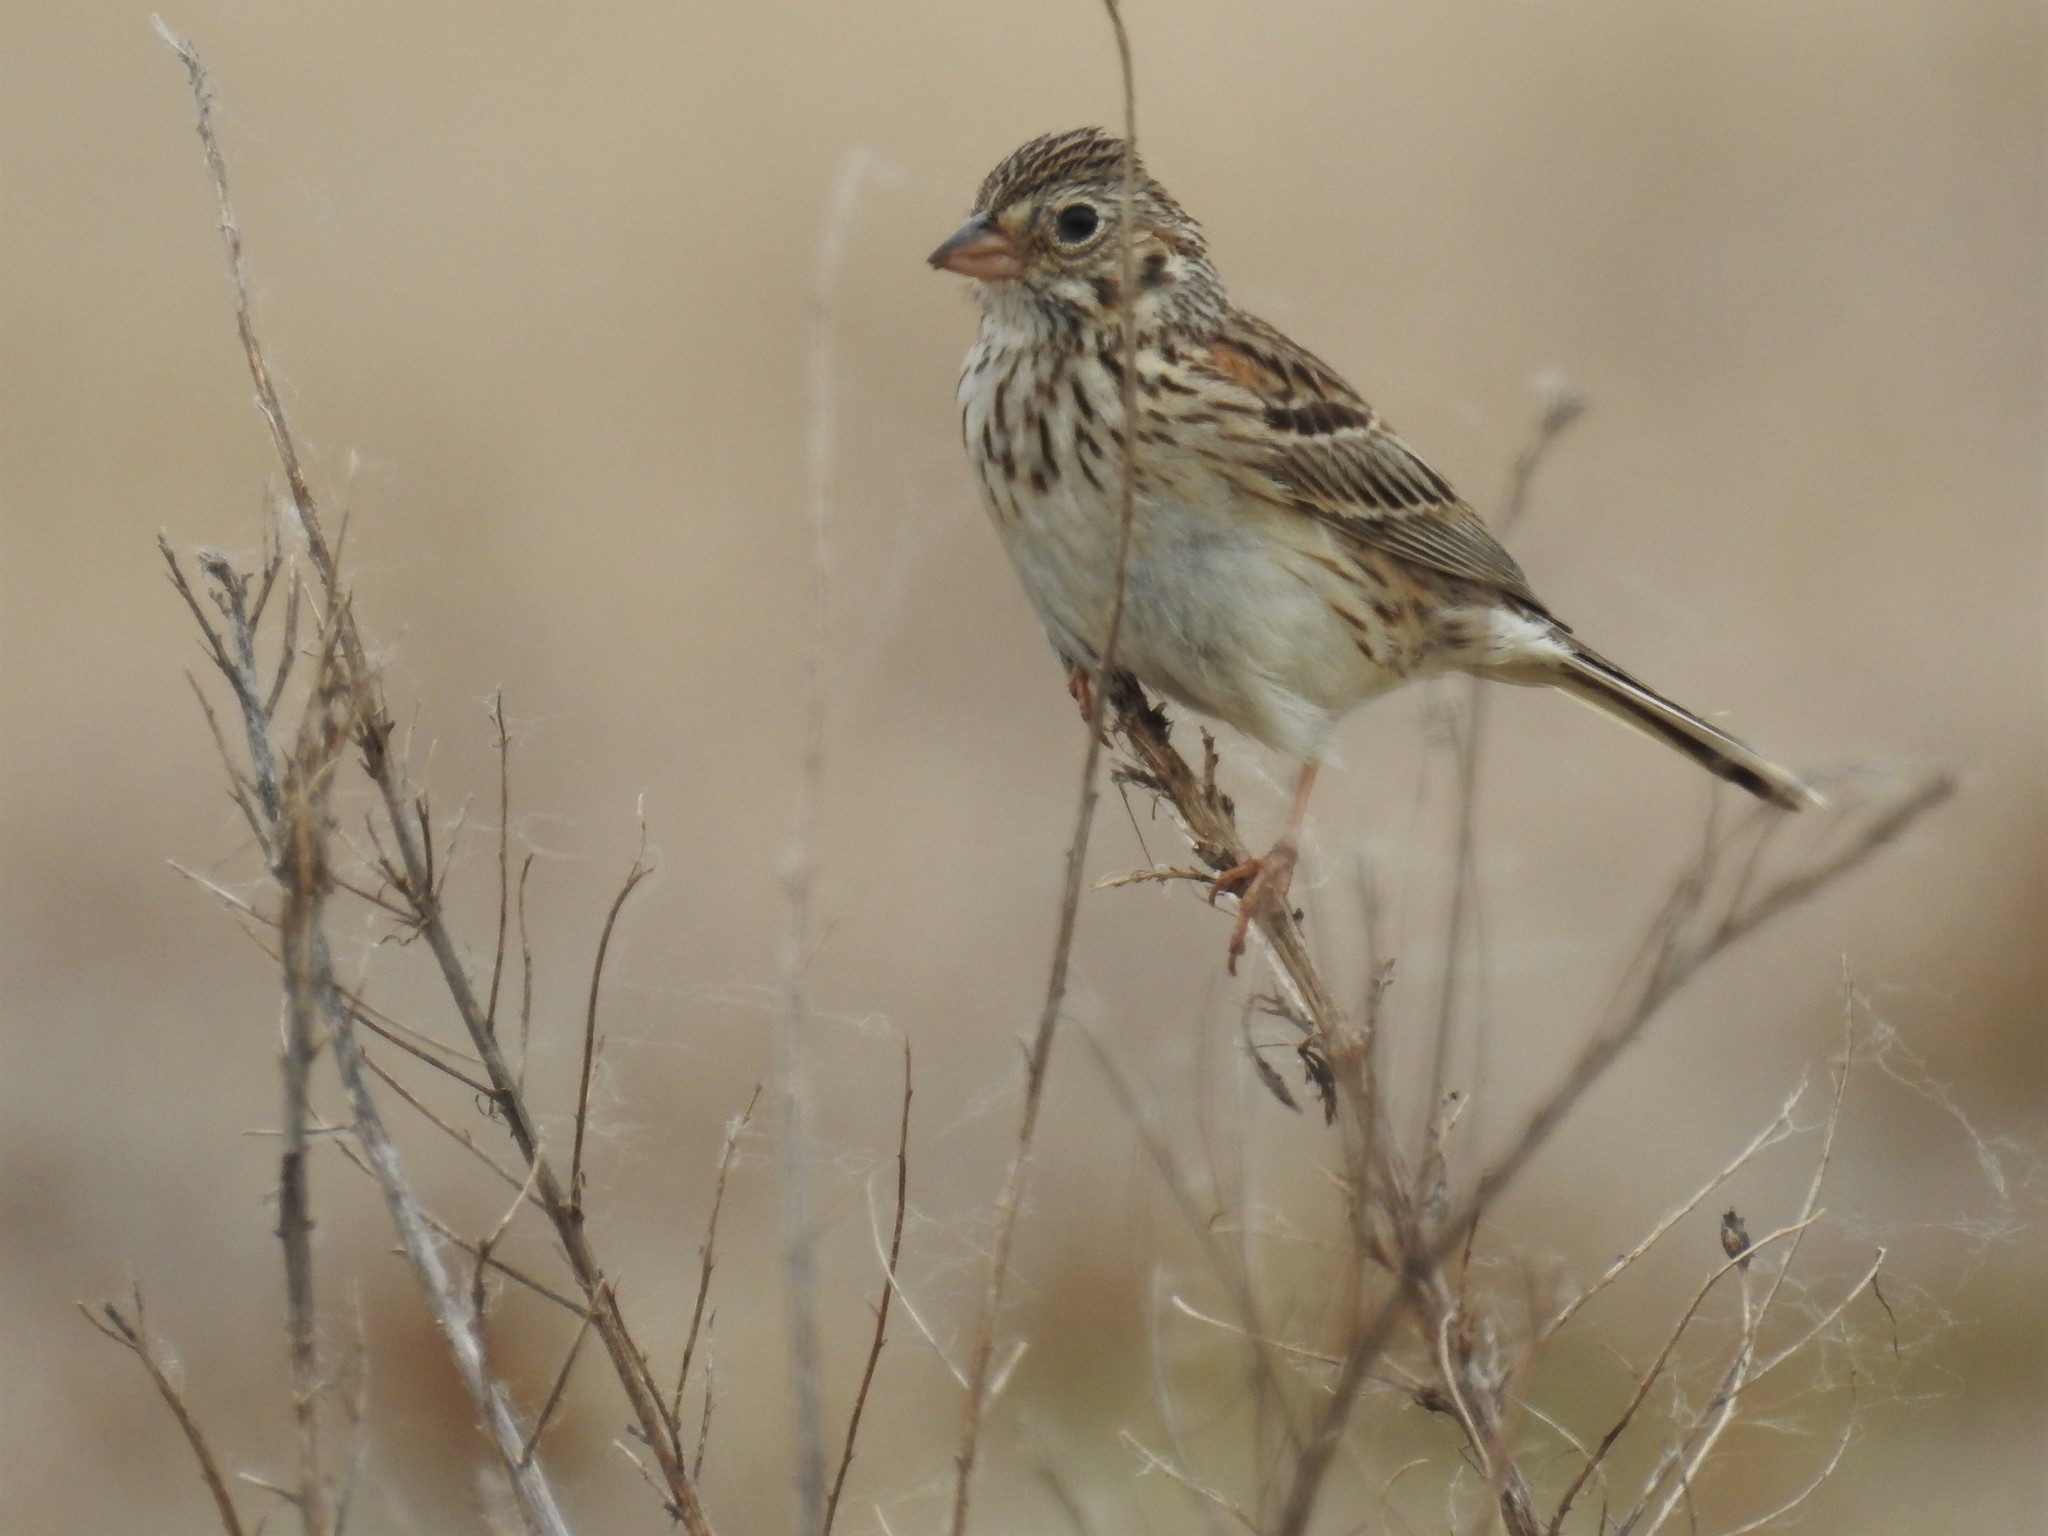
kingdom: Animalia
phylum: Chordata
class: Aves
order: Passeriformes
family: Passerellidae
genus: Pooecetes
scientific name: Pooecetes gramineus
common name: Vesper sparrow
